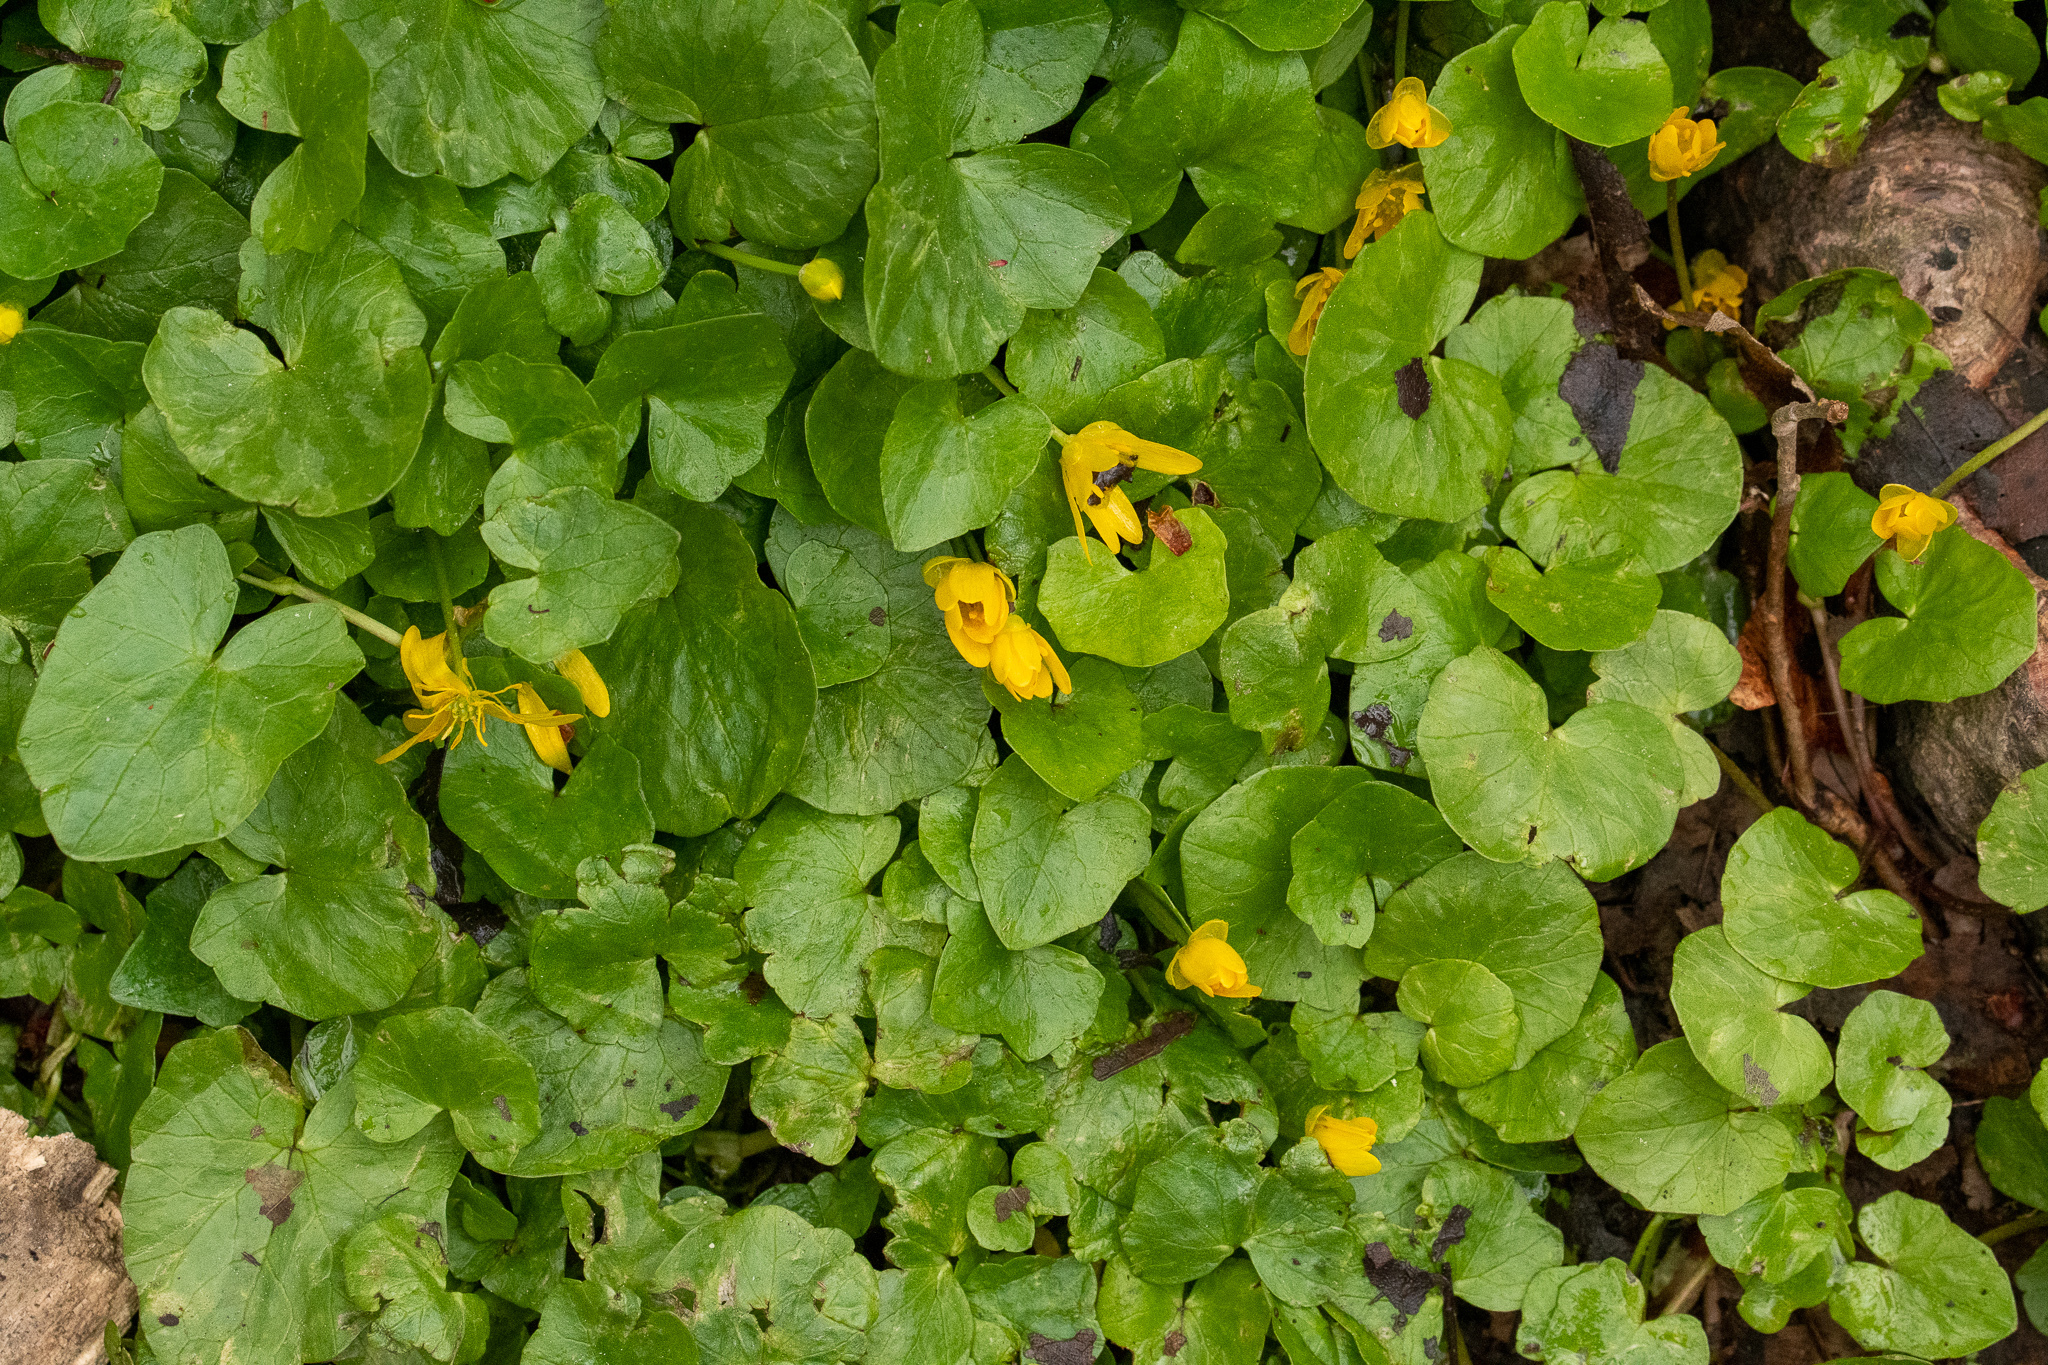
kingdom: Plantae
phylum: Tracheophyta
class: Magnoliopsida
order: Ranunculales
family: Ranunculaceae
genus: Ficaria
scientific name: Ficaria verna
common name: Lesser celandine
